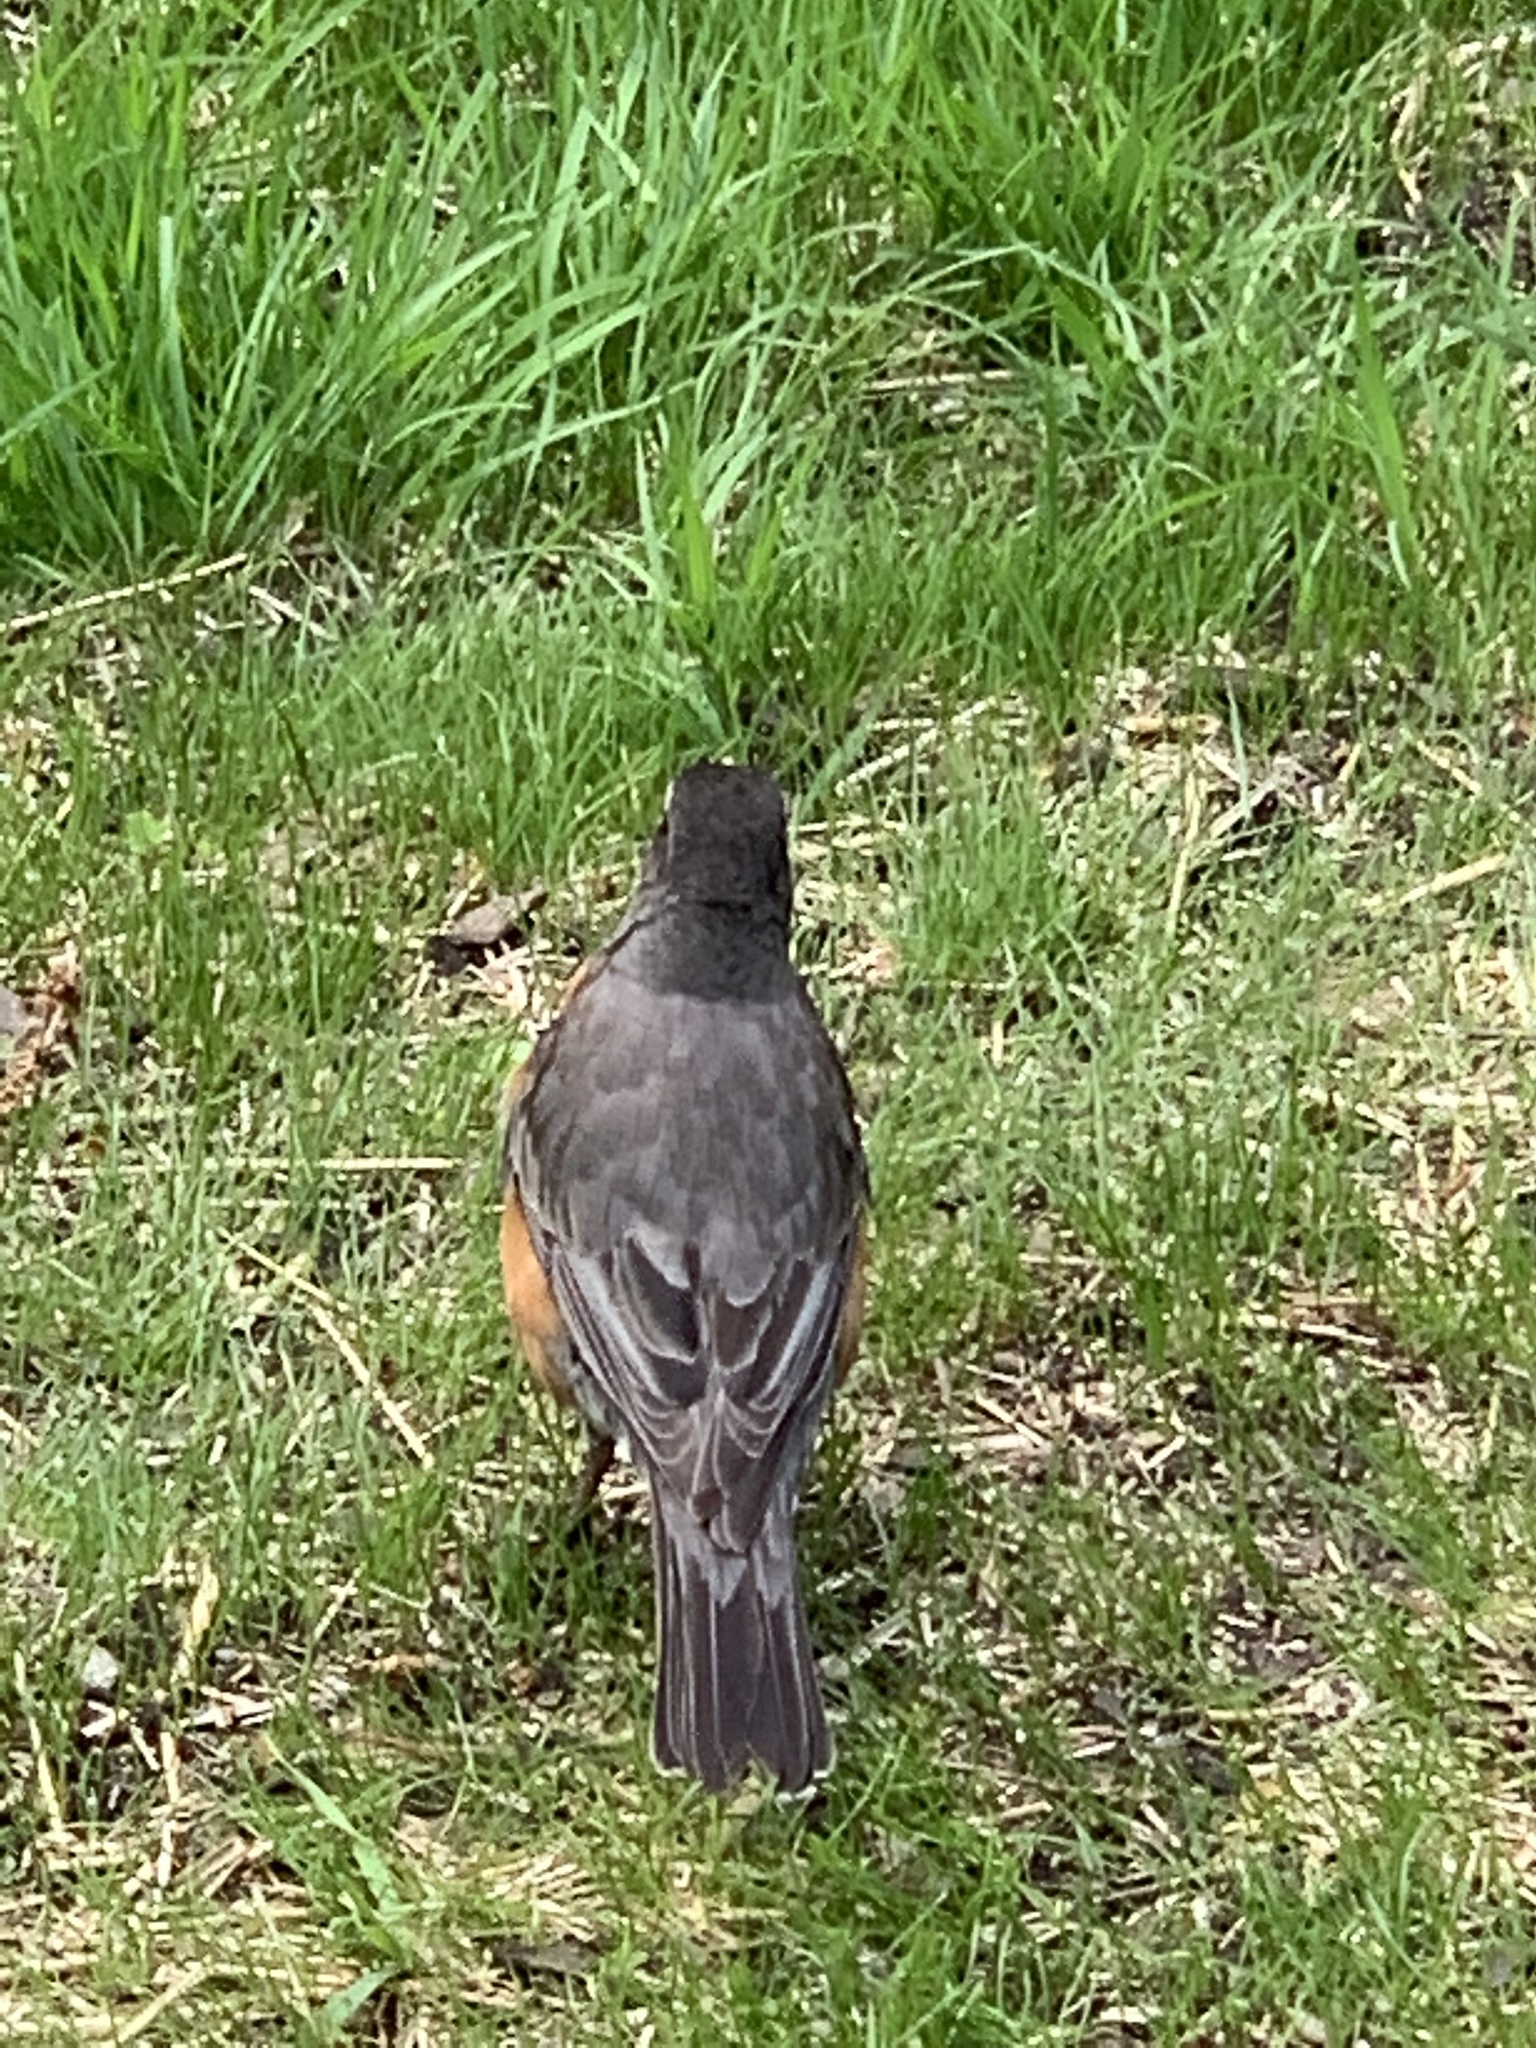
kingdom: Animalia
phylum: Chordata
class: Aves
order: Passeriformes
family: Turdidae
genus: Turdus
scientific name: Turdus migratorius
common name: American robin
